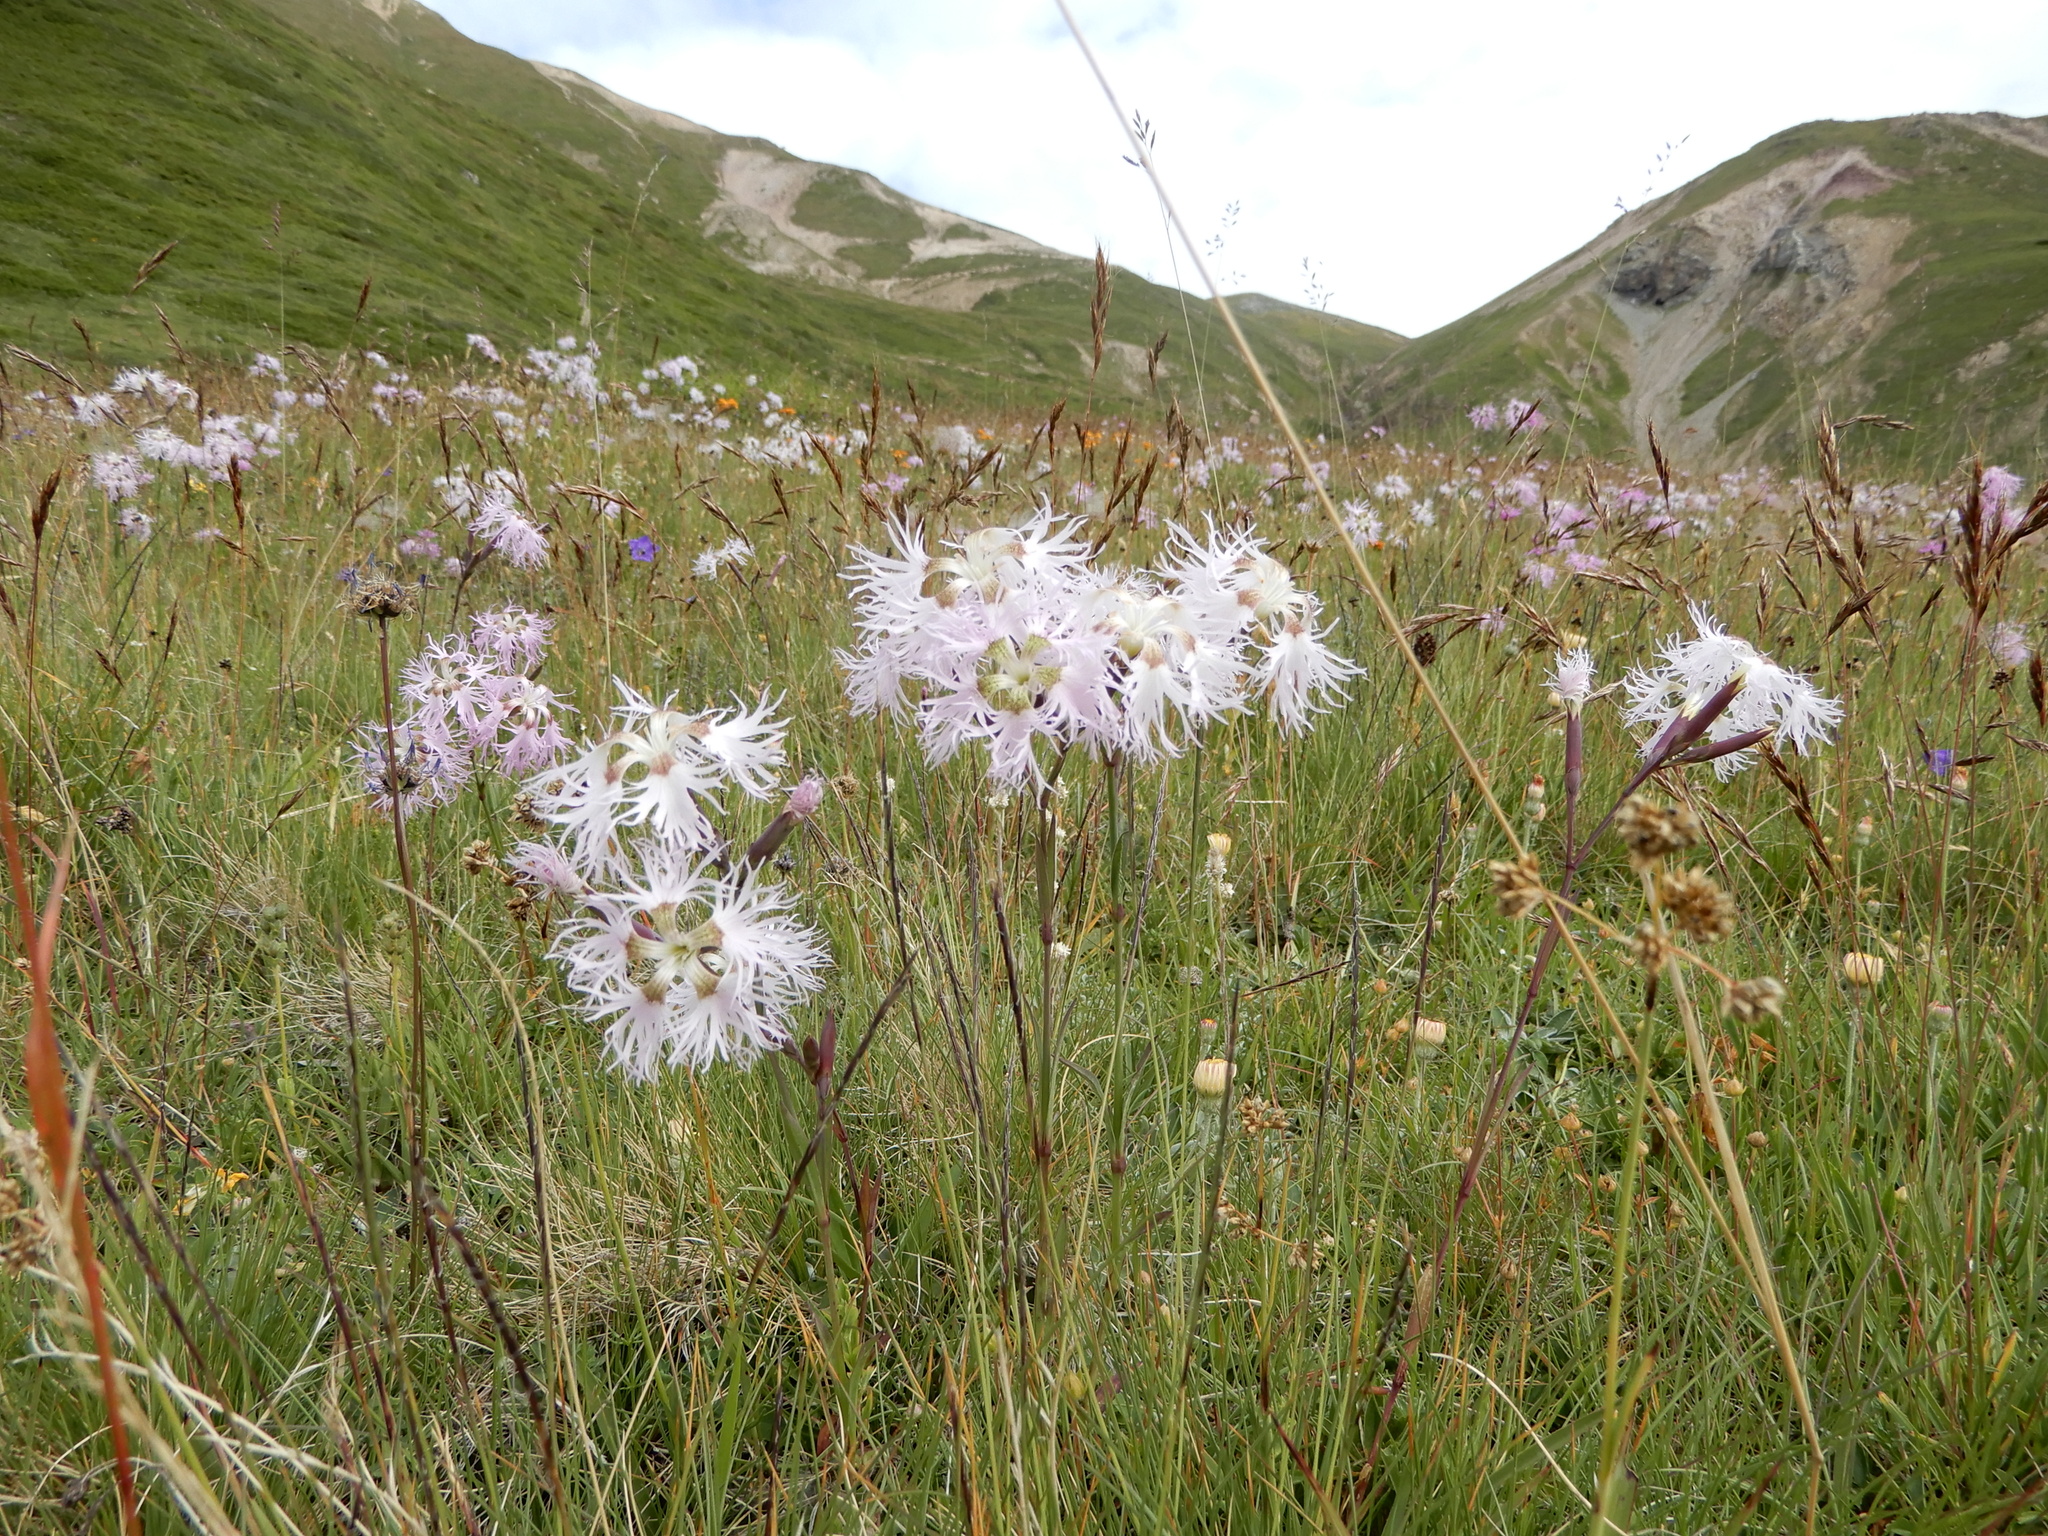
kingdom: Plantae
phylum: Tracheophyta
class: Magnoliopsida
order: Caryophyllales
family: Caryophyllaceae
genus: Dianthus
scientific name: Dianthus superbus
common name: Fringed pink
